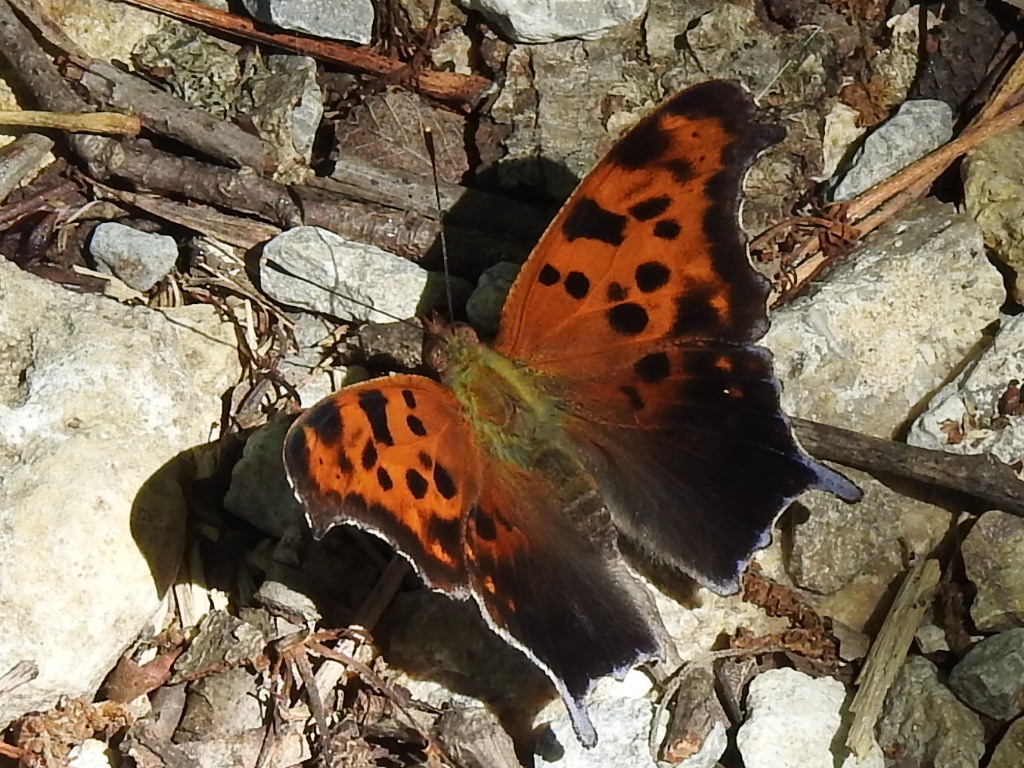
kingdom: Animalia
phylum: Arthropoda
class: Insecta
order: Lepidoptera
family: Nymphalidae
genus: Polygonia
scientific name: Polygonia interrogationis
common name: Question mark
